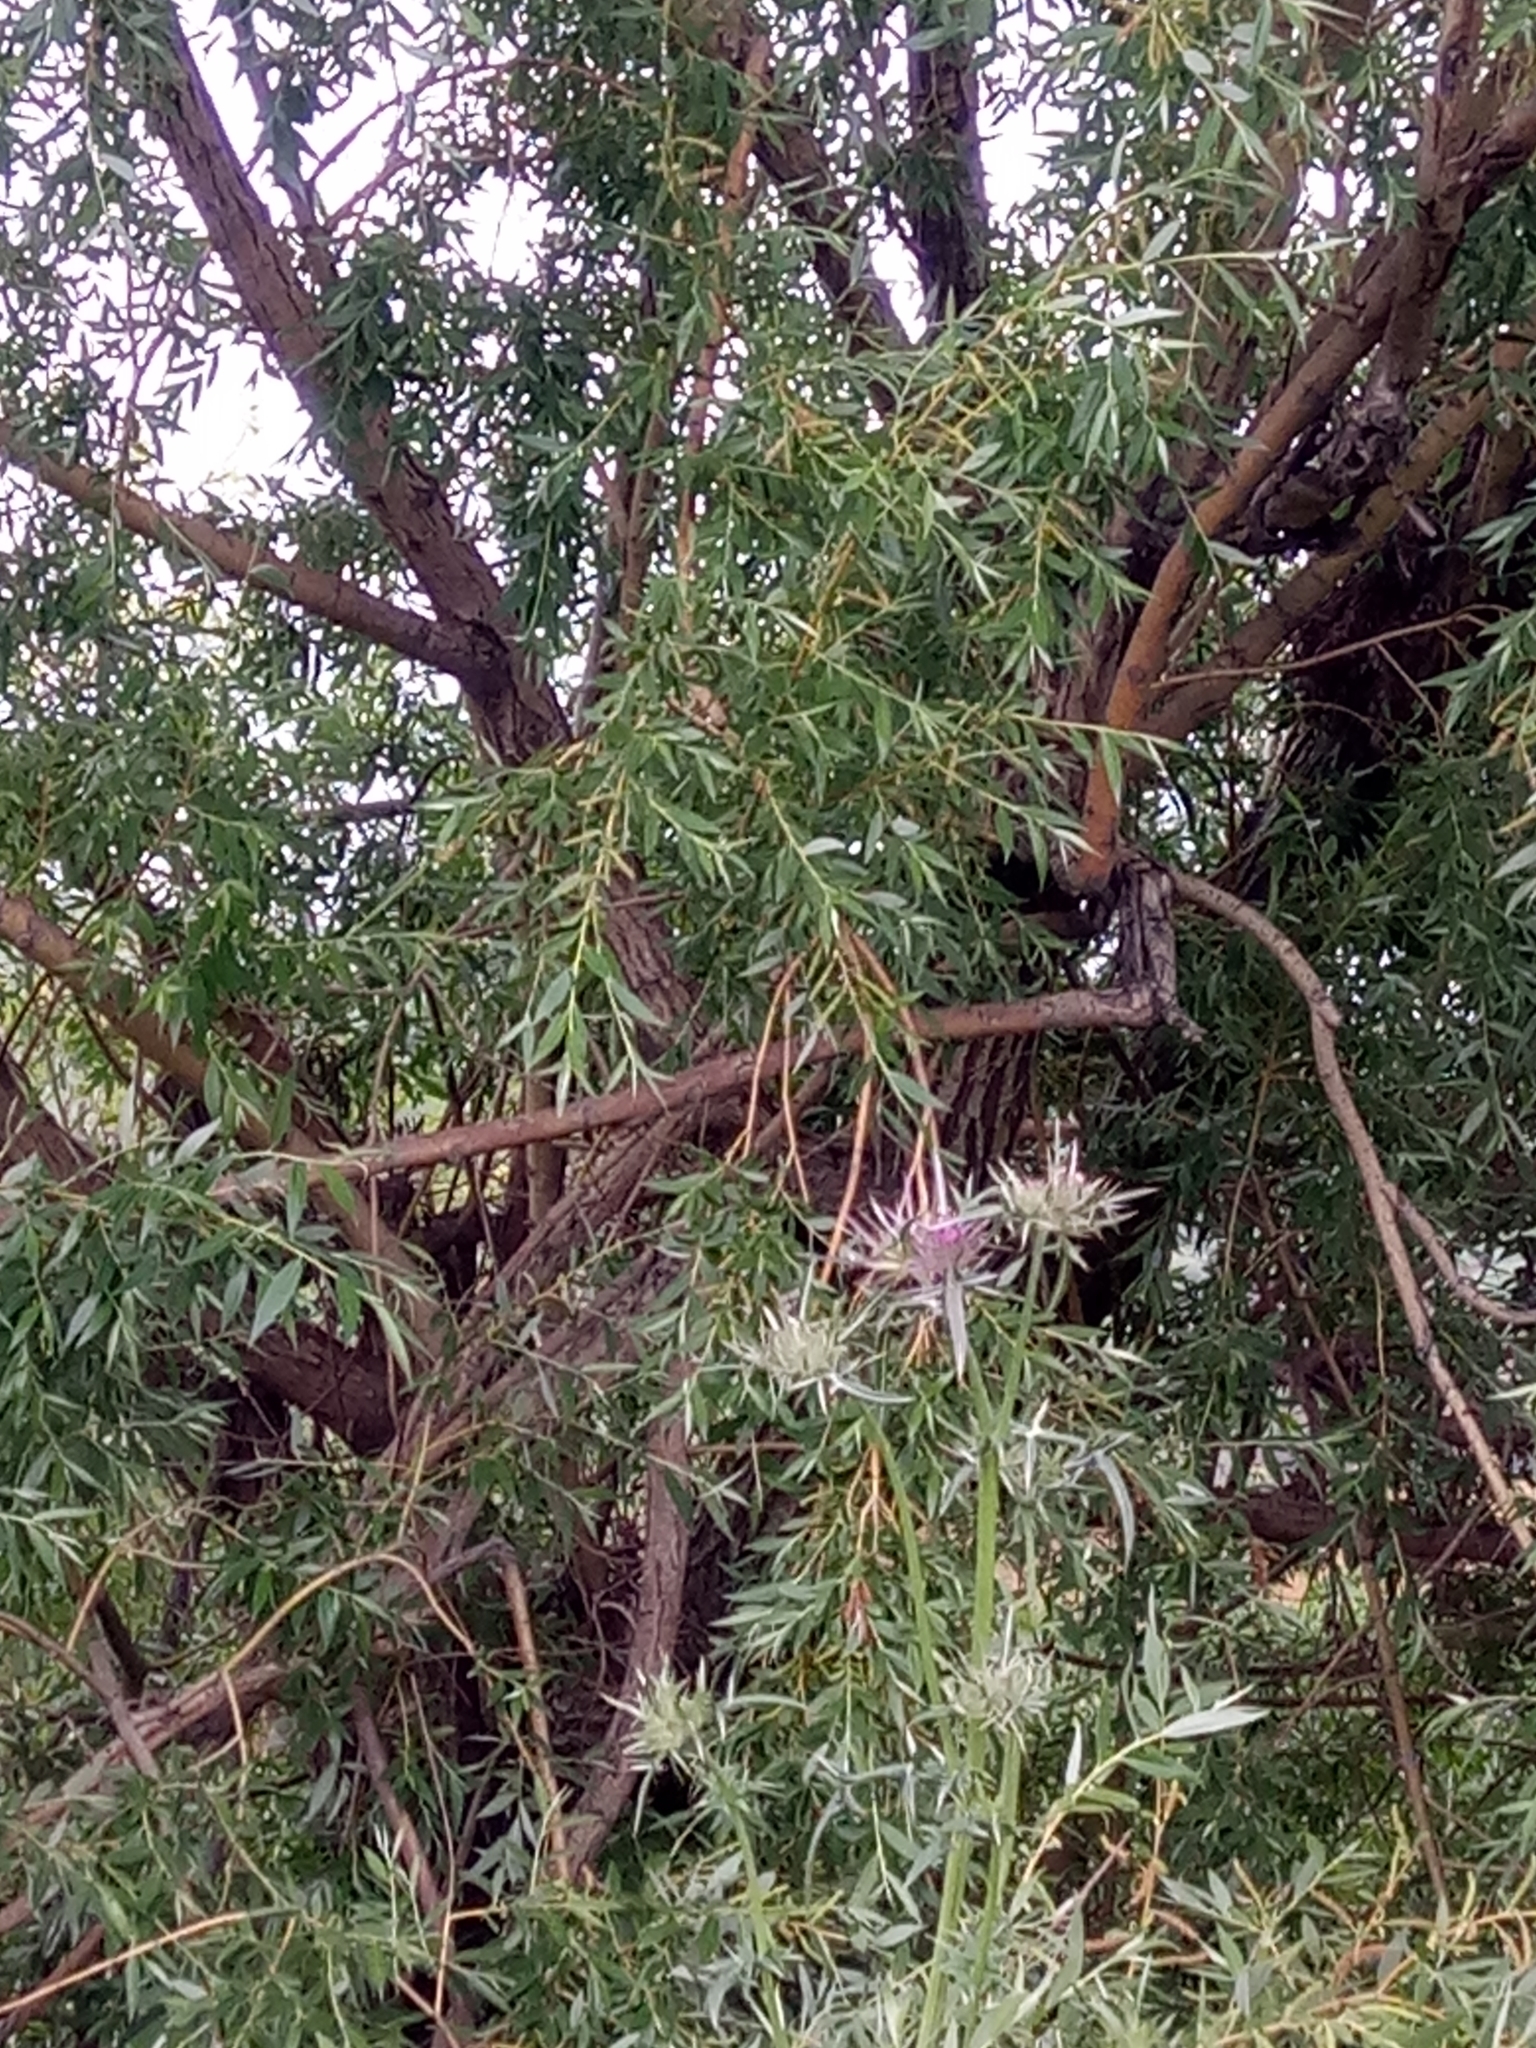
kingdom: Plantae
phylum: Tracheophyta
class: Magnoliopsida
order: Malpighiales
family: Salicaceae
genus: Salix
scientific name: Salix alba
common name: White willow
